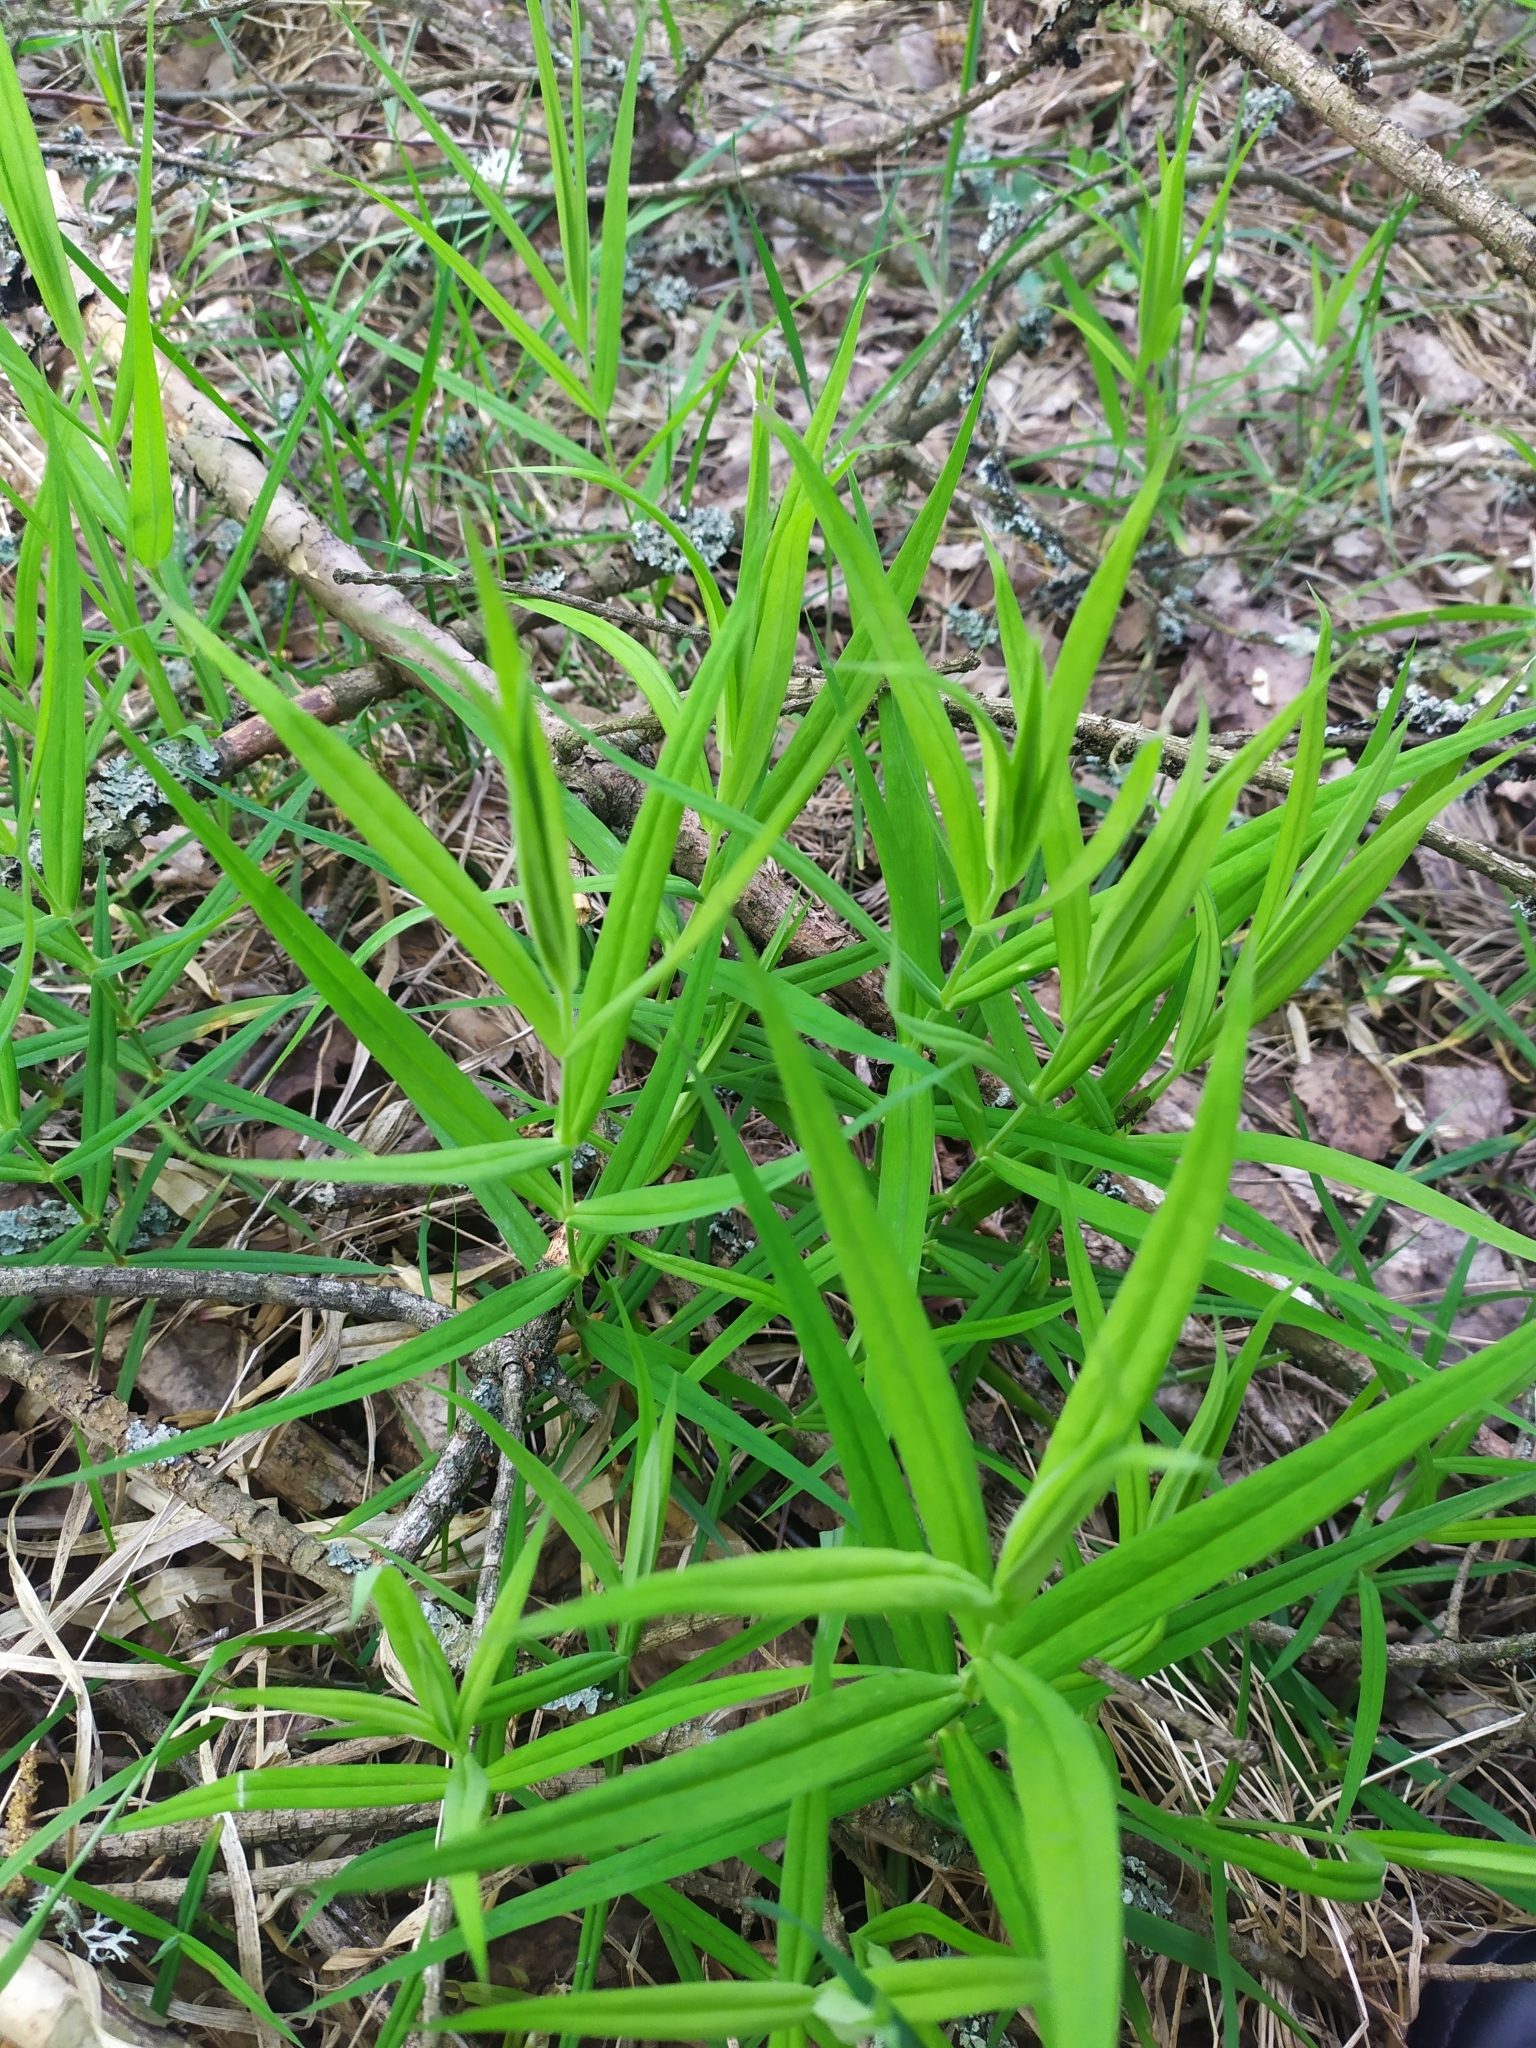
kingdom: Plantae
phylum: Tracheophyta
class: Magnoliopsida
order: Caryophyllales
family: Caryophyllaceae
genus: Rabelera
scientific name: Rabelera holostea
